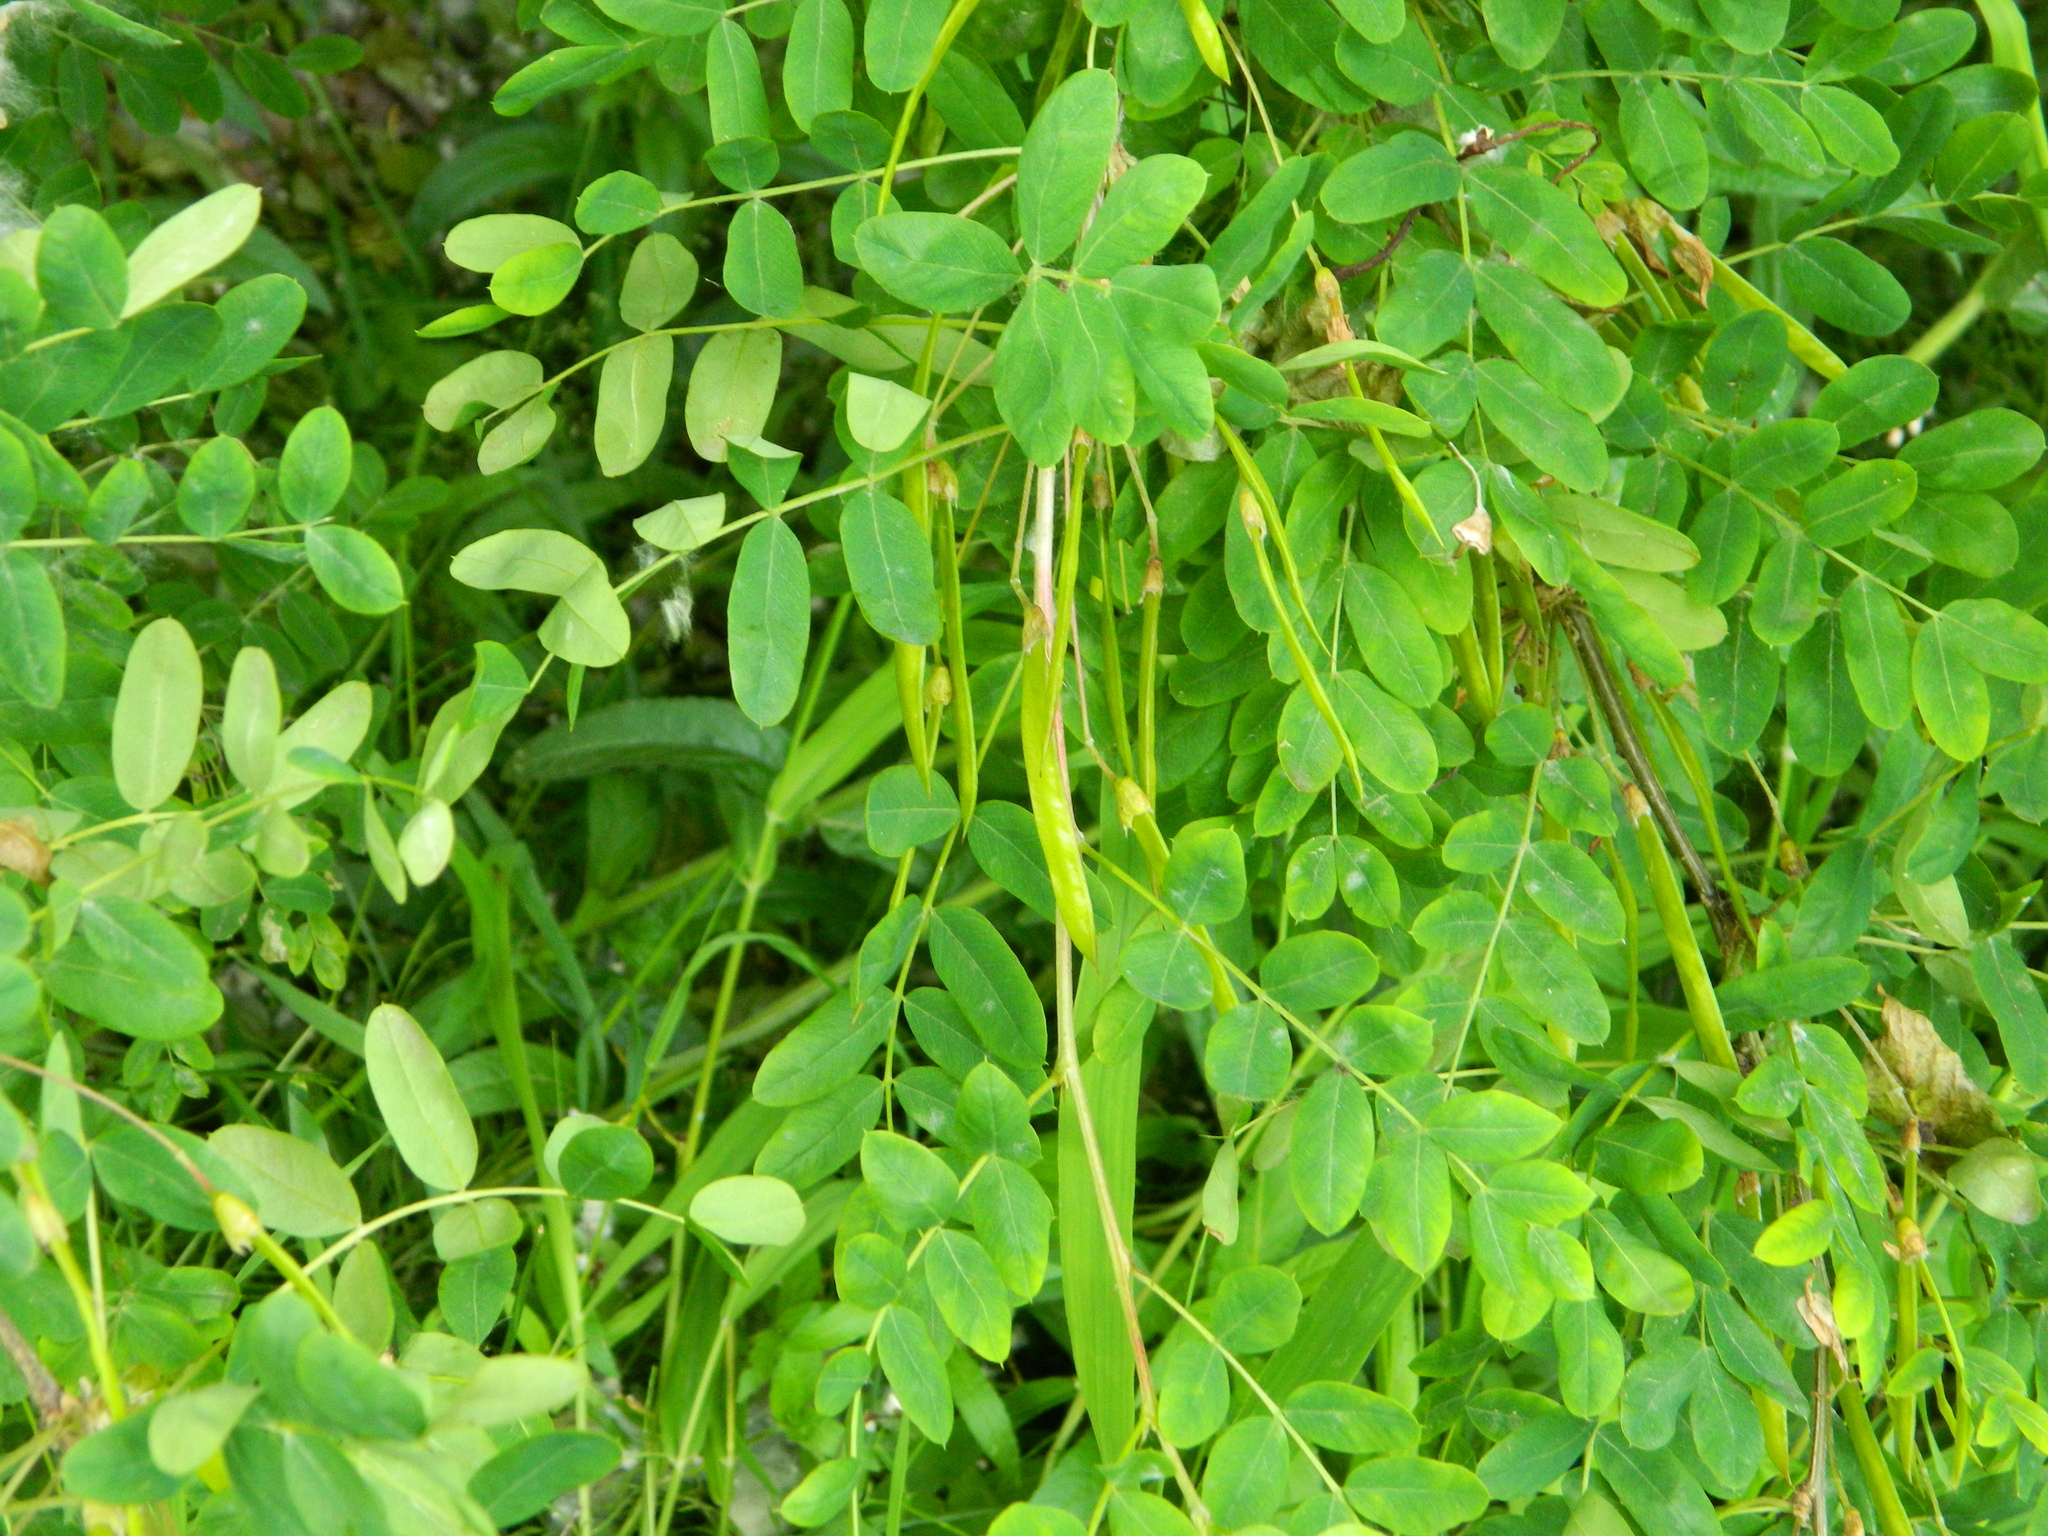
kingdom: Plantae
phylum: Tracheophyta
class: Magnoliopsida
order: Fabales
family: Fabaceae
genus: Caragana
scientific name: Caragana arborescens
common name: Siberian peashrub
